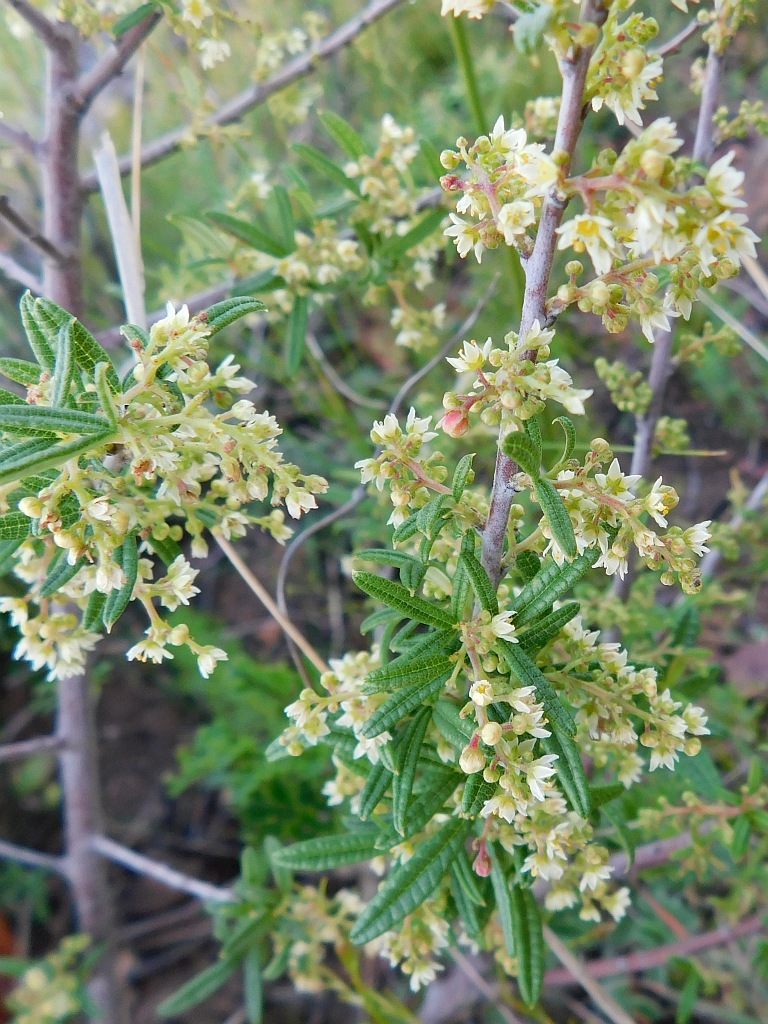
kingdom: Plantae
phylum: Tracheophyta
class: Magnoliopsida
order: Sapindales
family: Anacardiaceae
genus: Searsia
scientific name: Searsia rosmarinifolia
